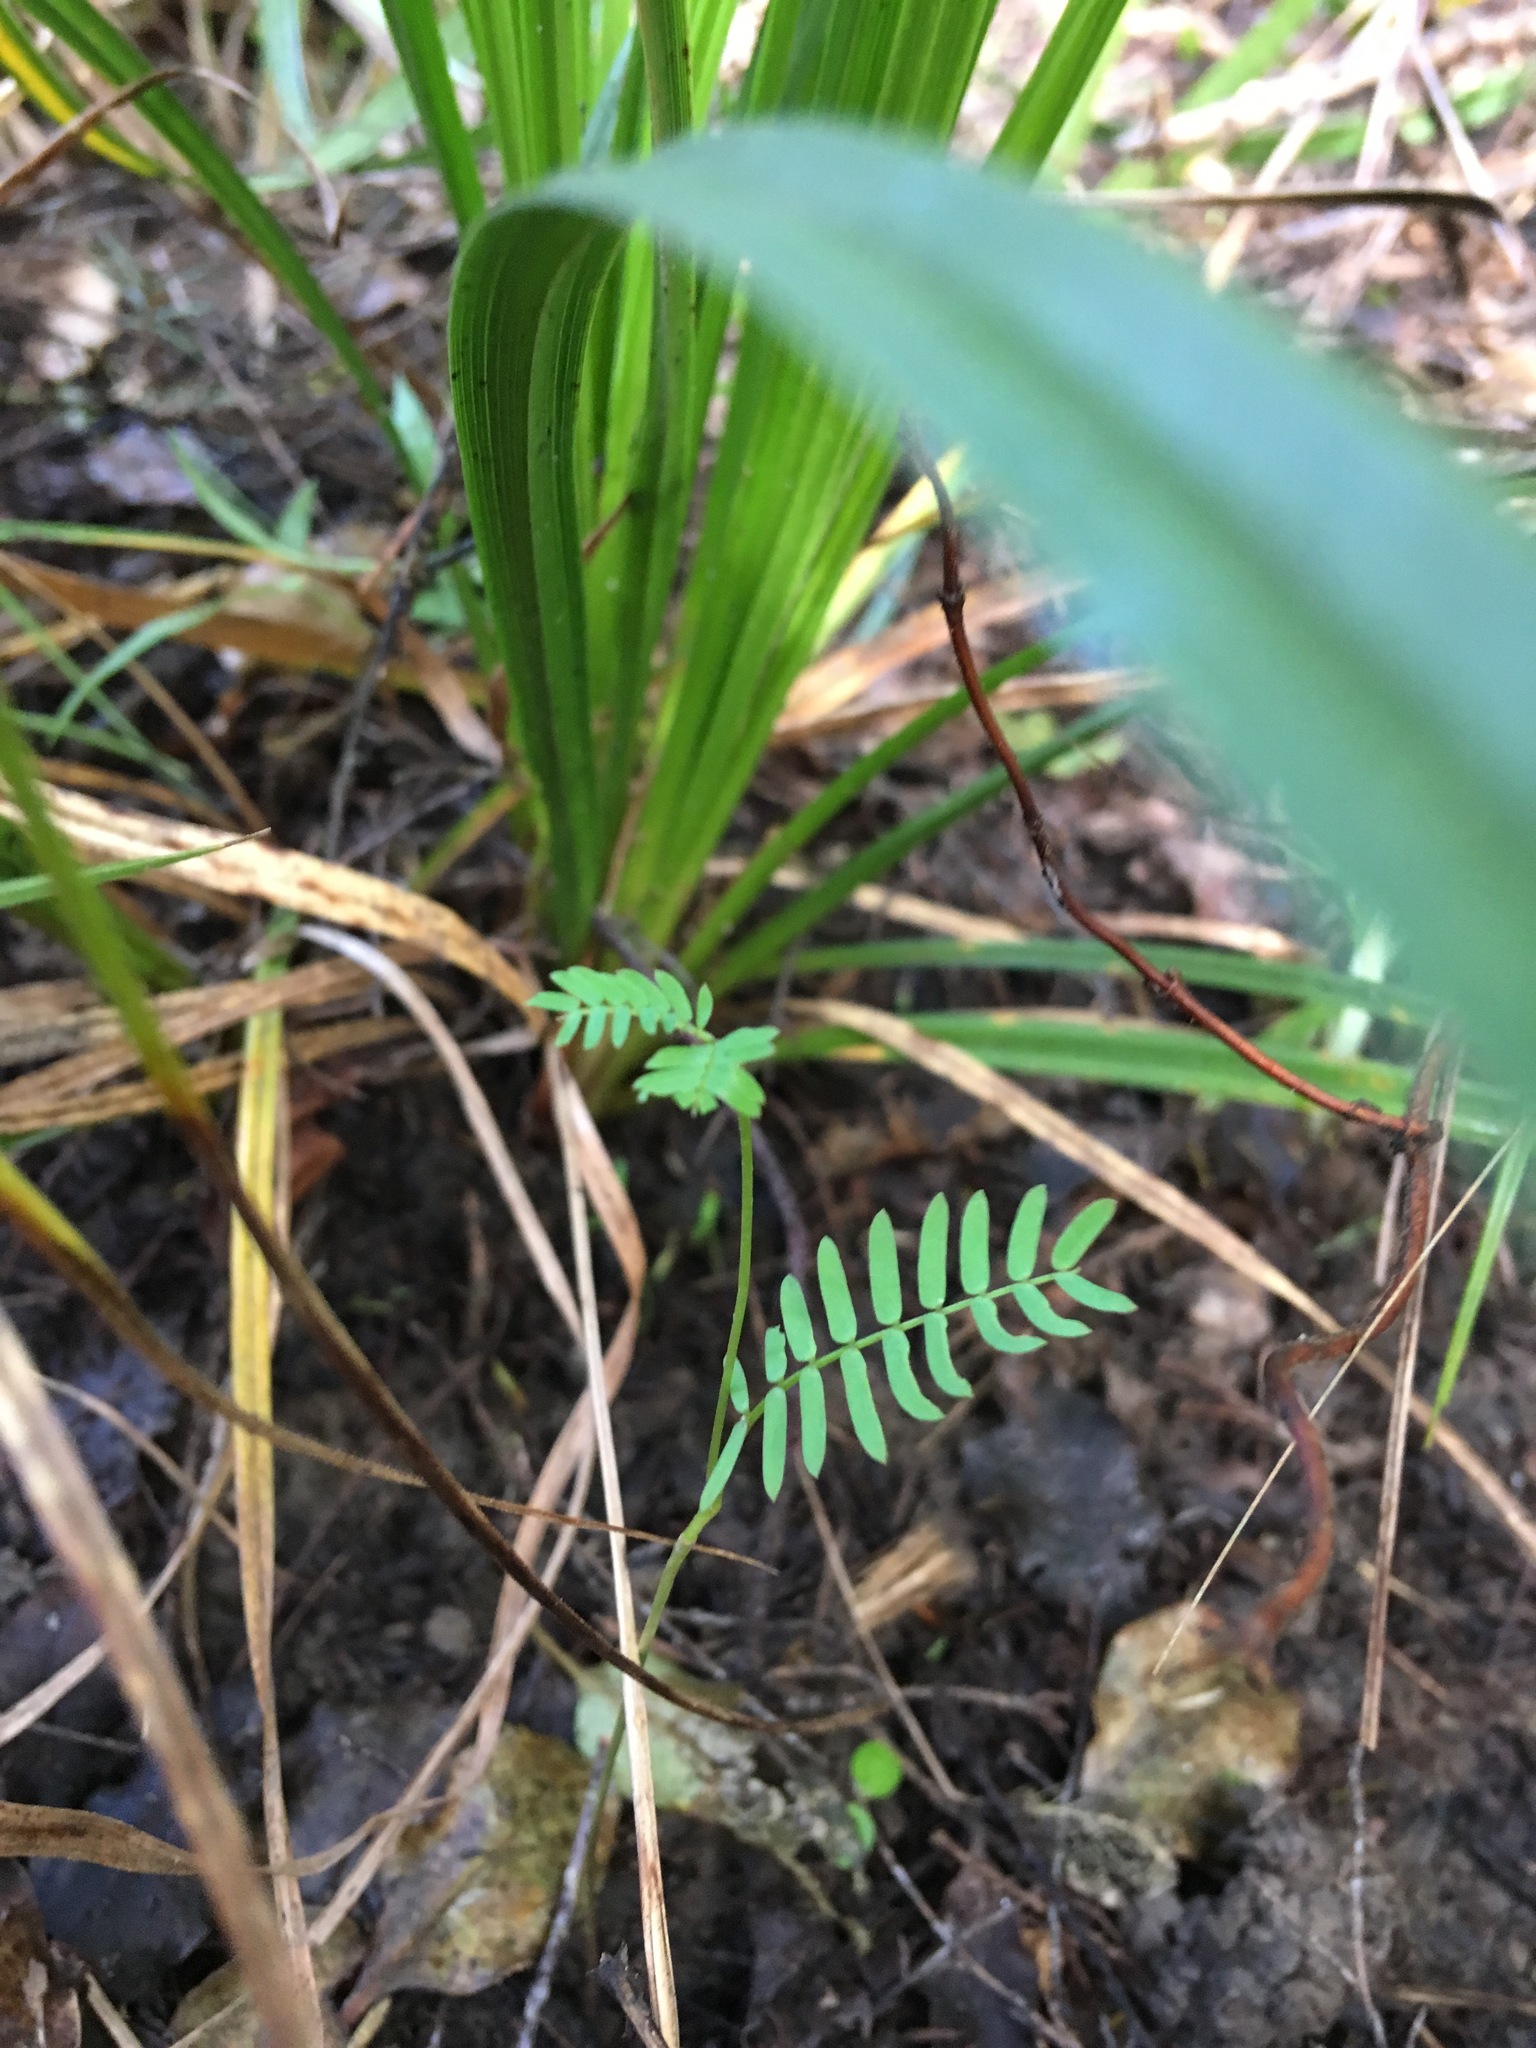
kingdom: Plantae
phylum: Tracheophyta
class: Magnoliopsida
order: Fabales
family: Fabaceae
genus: Paraserianthes
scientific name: Paraserianthes lophantha
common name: Plume albizia
